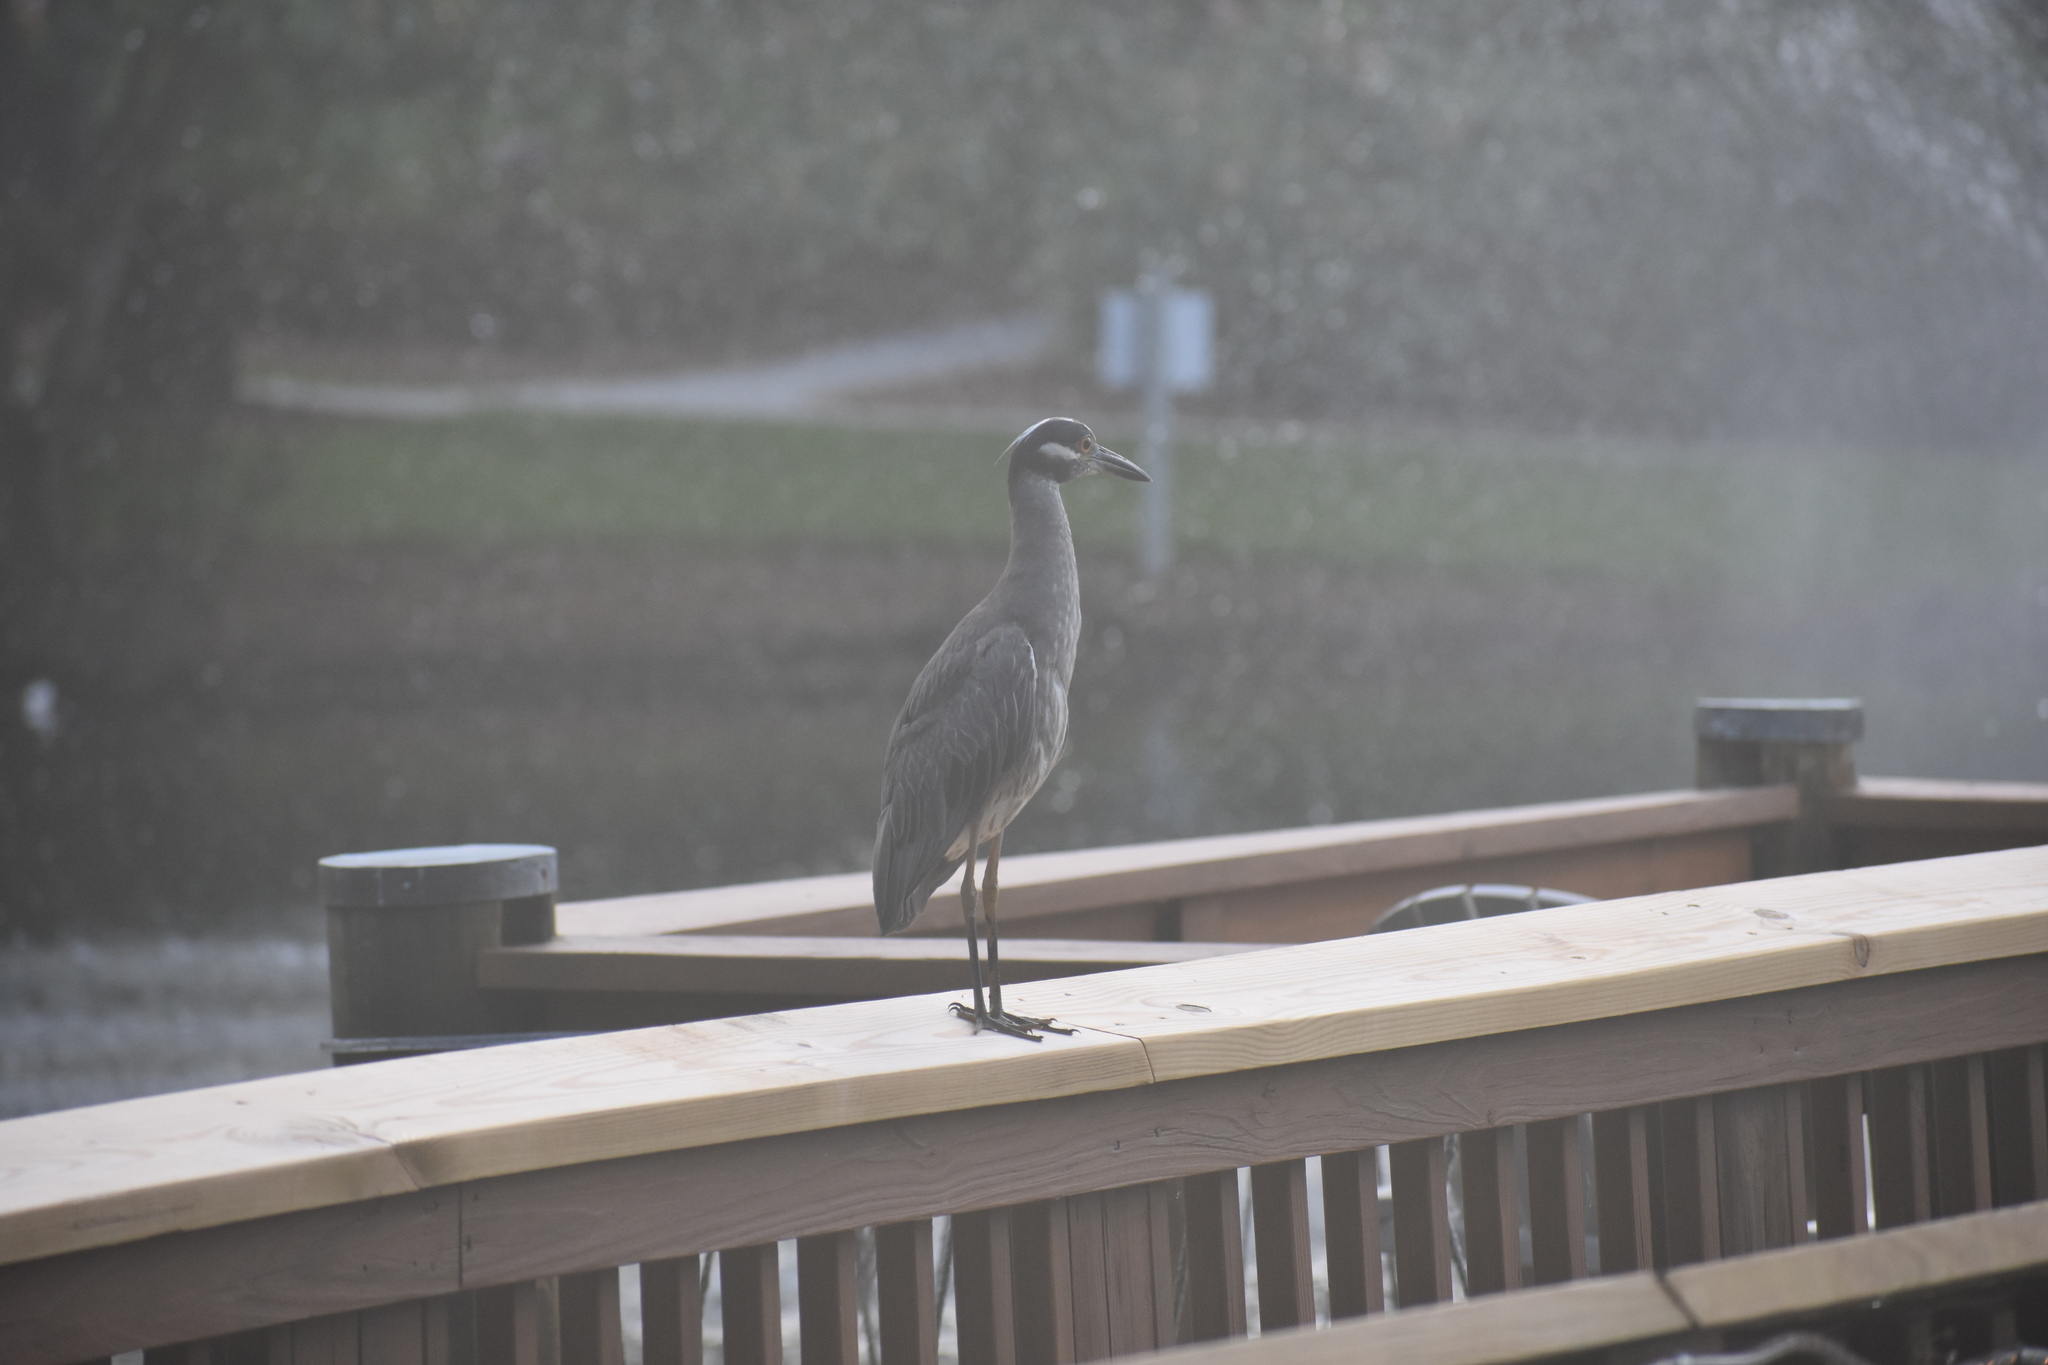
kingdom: Animalia
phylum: Chordata
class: Aves
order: Pelecaniformes
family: Ardeidae
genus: Nyctanassa
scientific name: Nyctanassa violacea
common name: Yellow-crowned night heron
